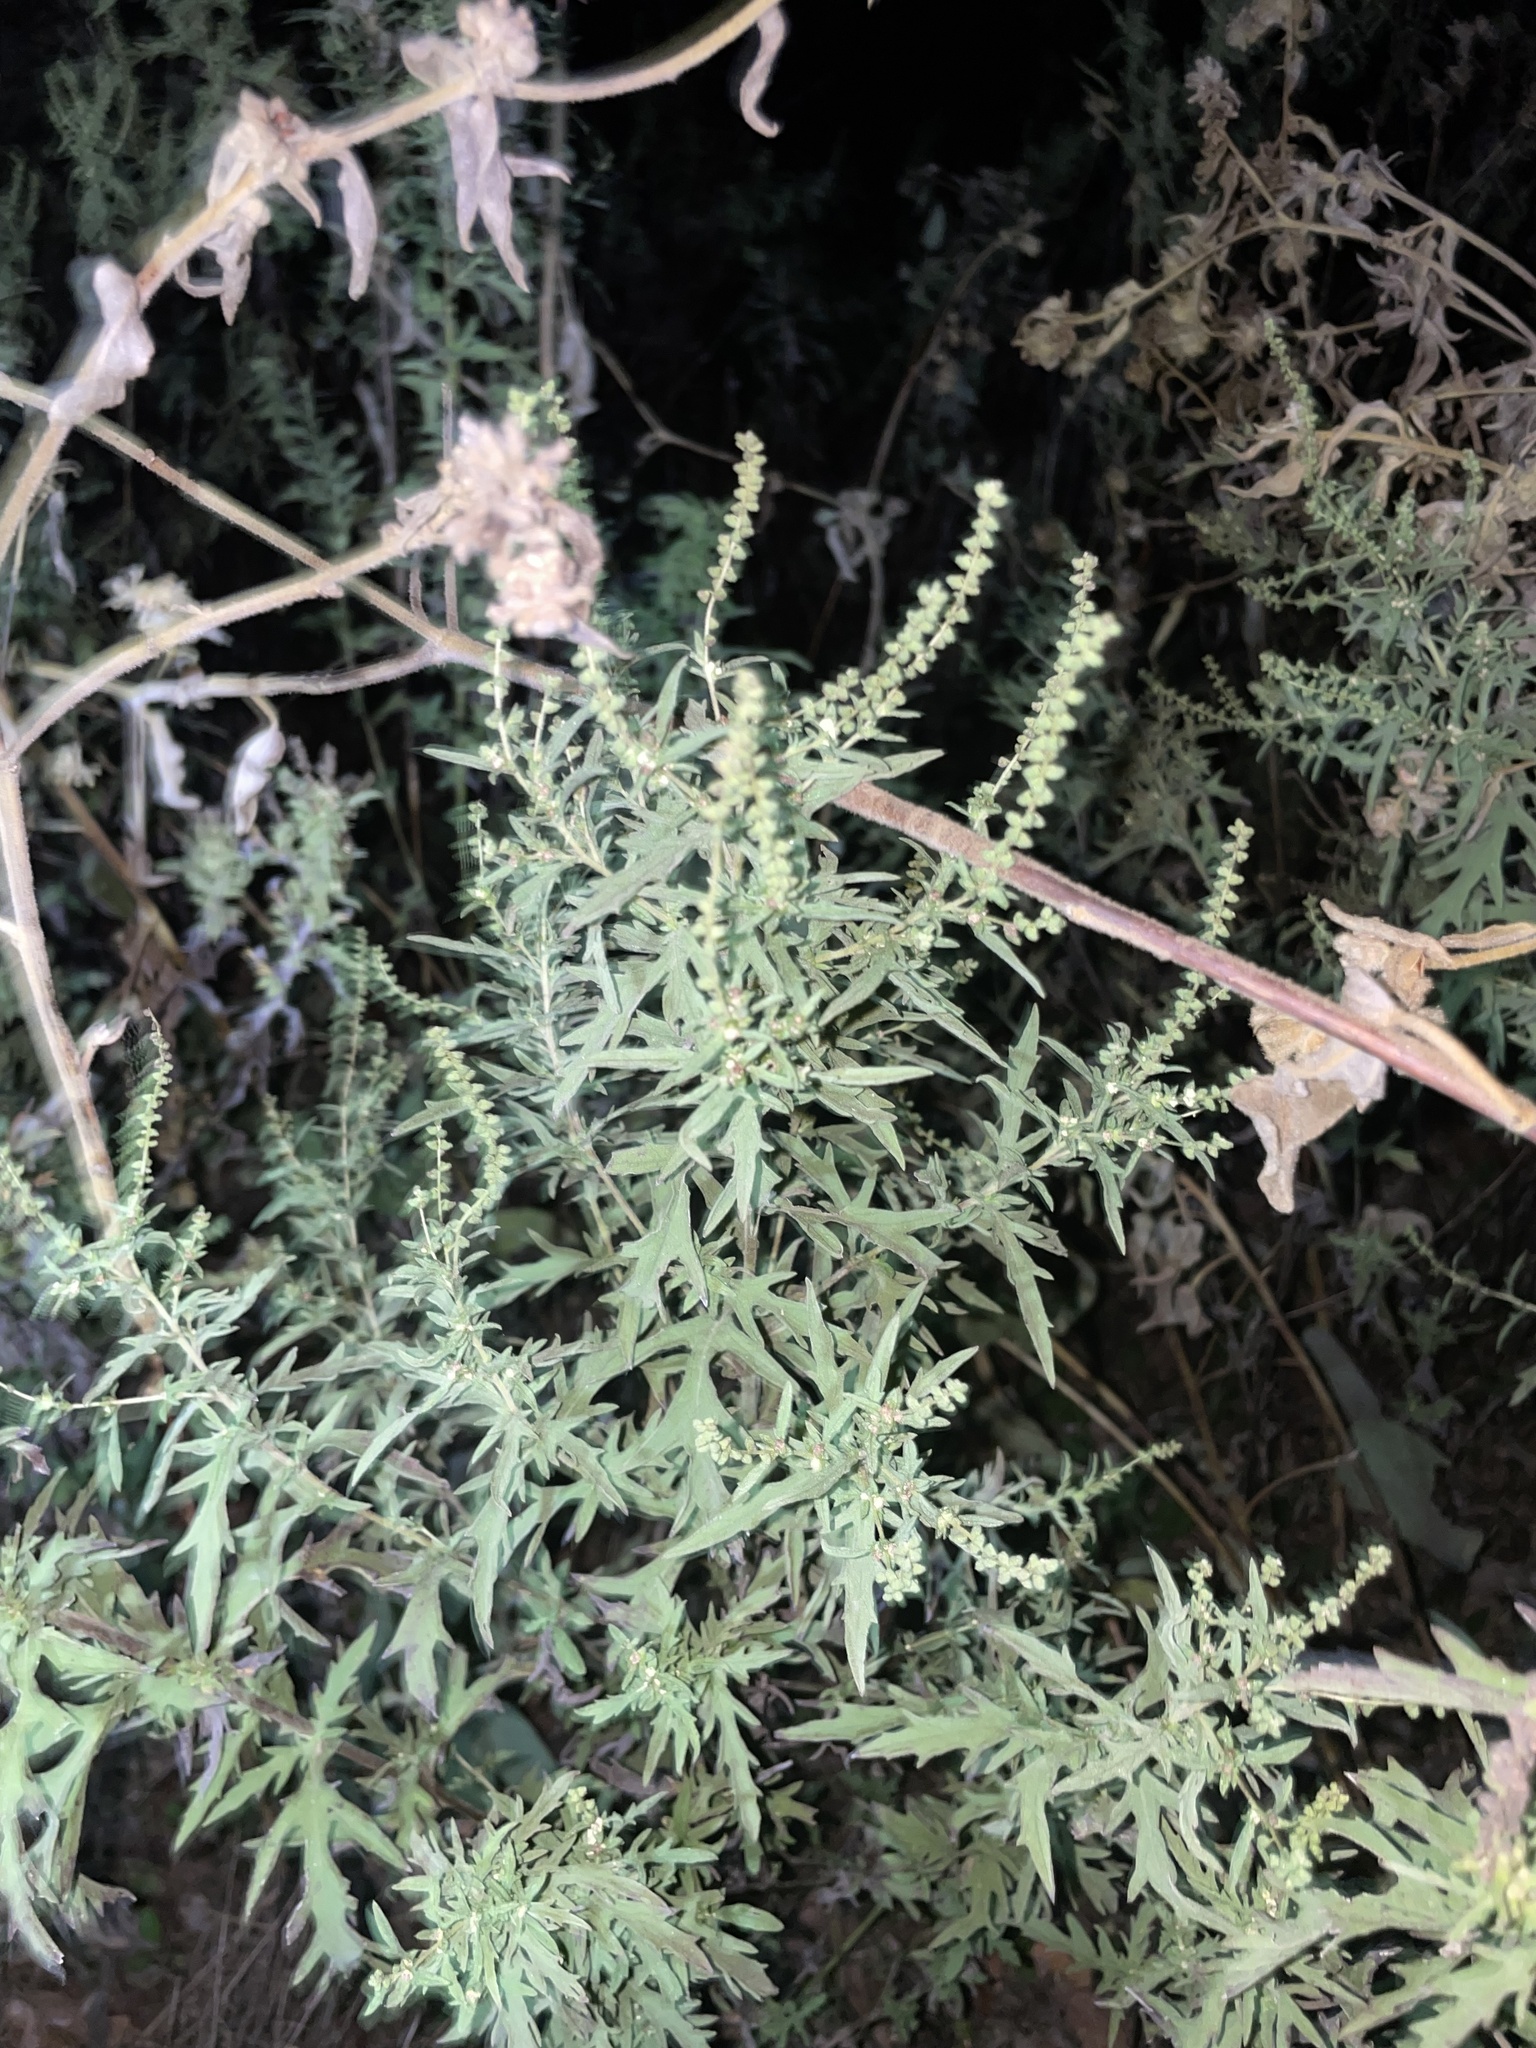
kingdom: Plantae
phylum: Tracheophyta
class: Magnoliopsida
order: Asterales
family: Asteraceae
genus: Ambrosia
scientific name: Ambrosia psilostachya
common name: Perennial ragweed
